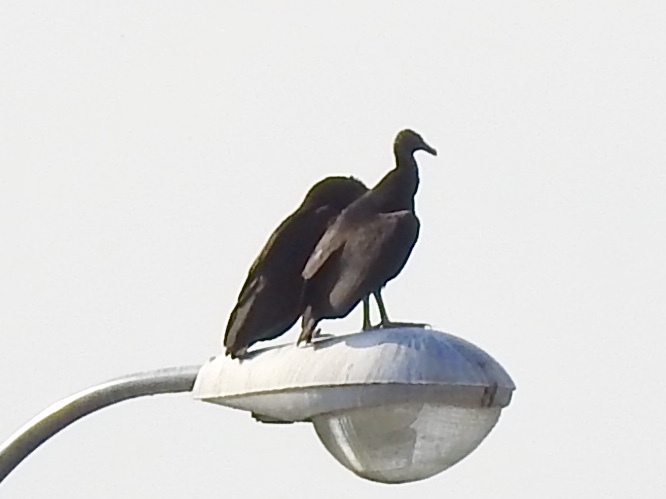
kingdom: Animalia
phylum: Chordata
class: Aves
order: Accipitriformes
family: Cathartidae
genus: Coragyps
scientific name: Coragyps atratus
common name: Black vulture
